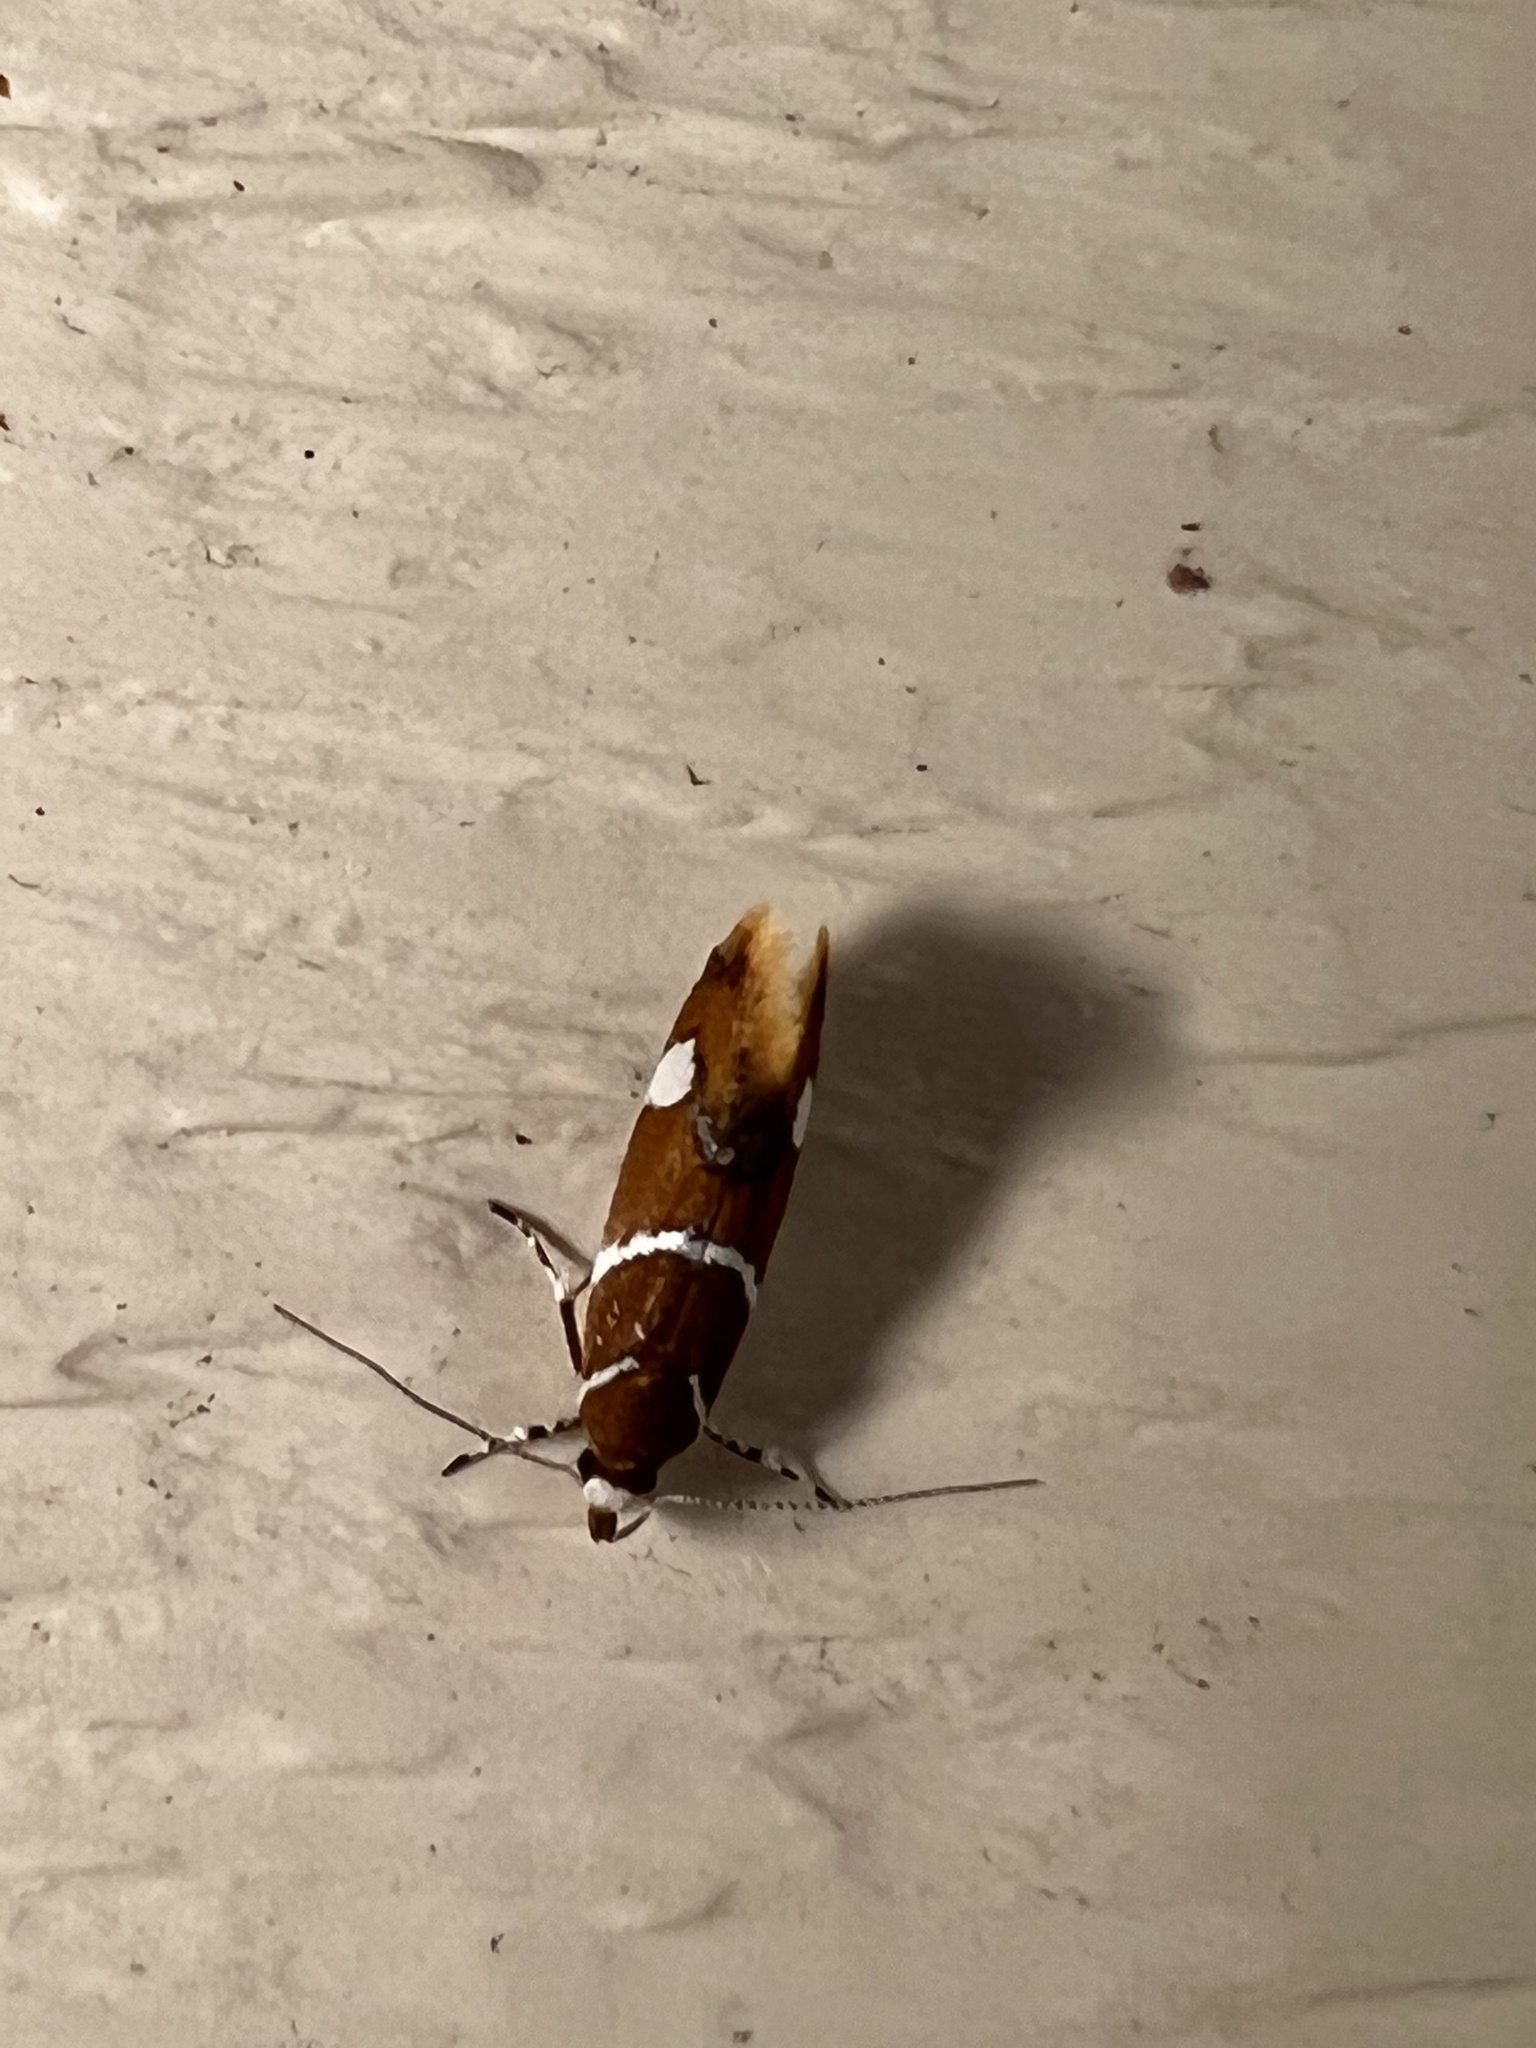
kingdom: Animalia
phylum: Arthropoda
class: Insecta
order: Lepidoptera
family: Oecophoridae
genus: Promalactis
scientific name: Promalactis suzukiella
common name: Moth
